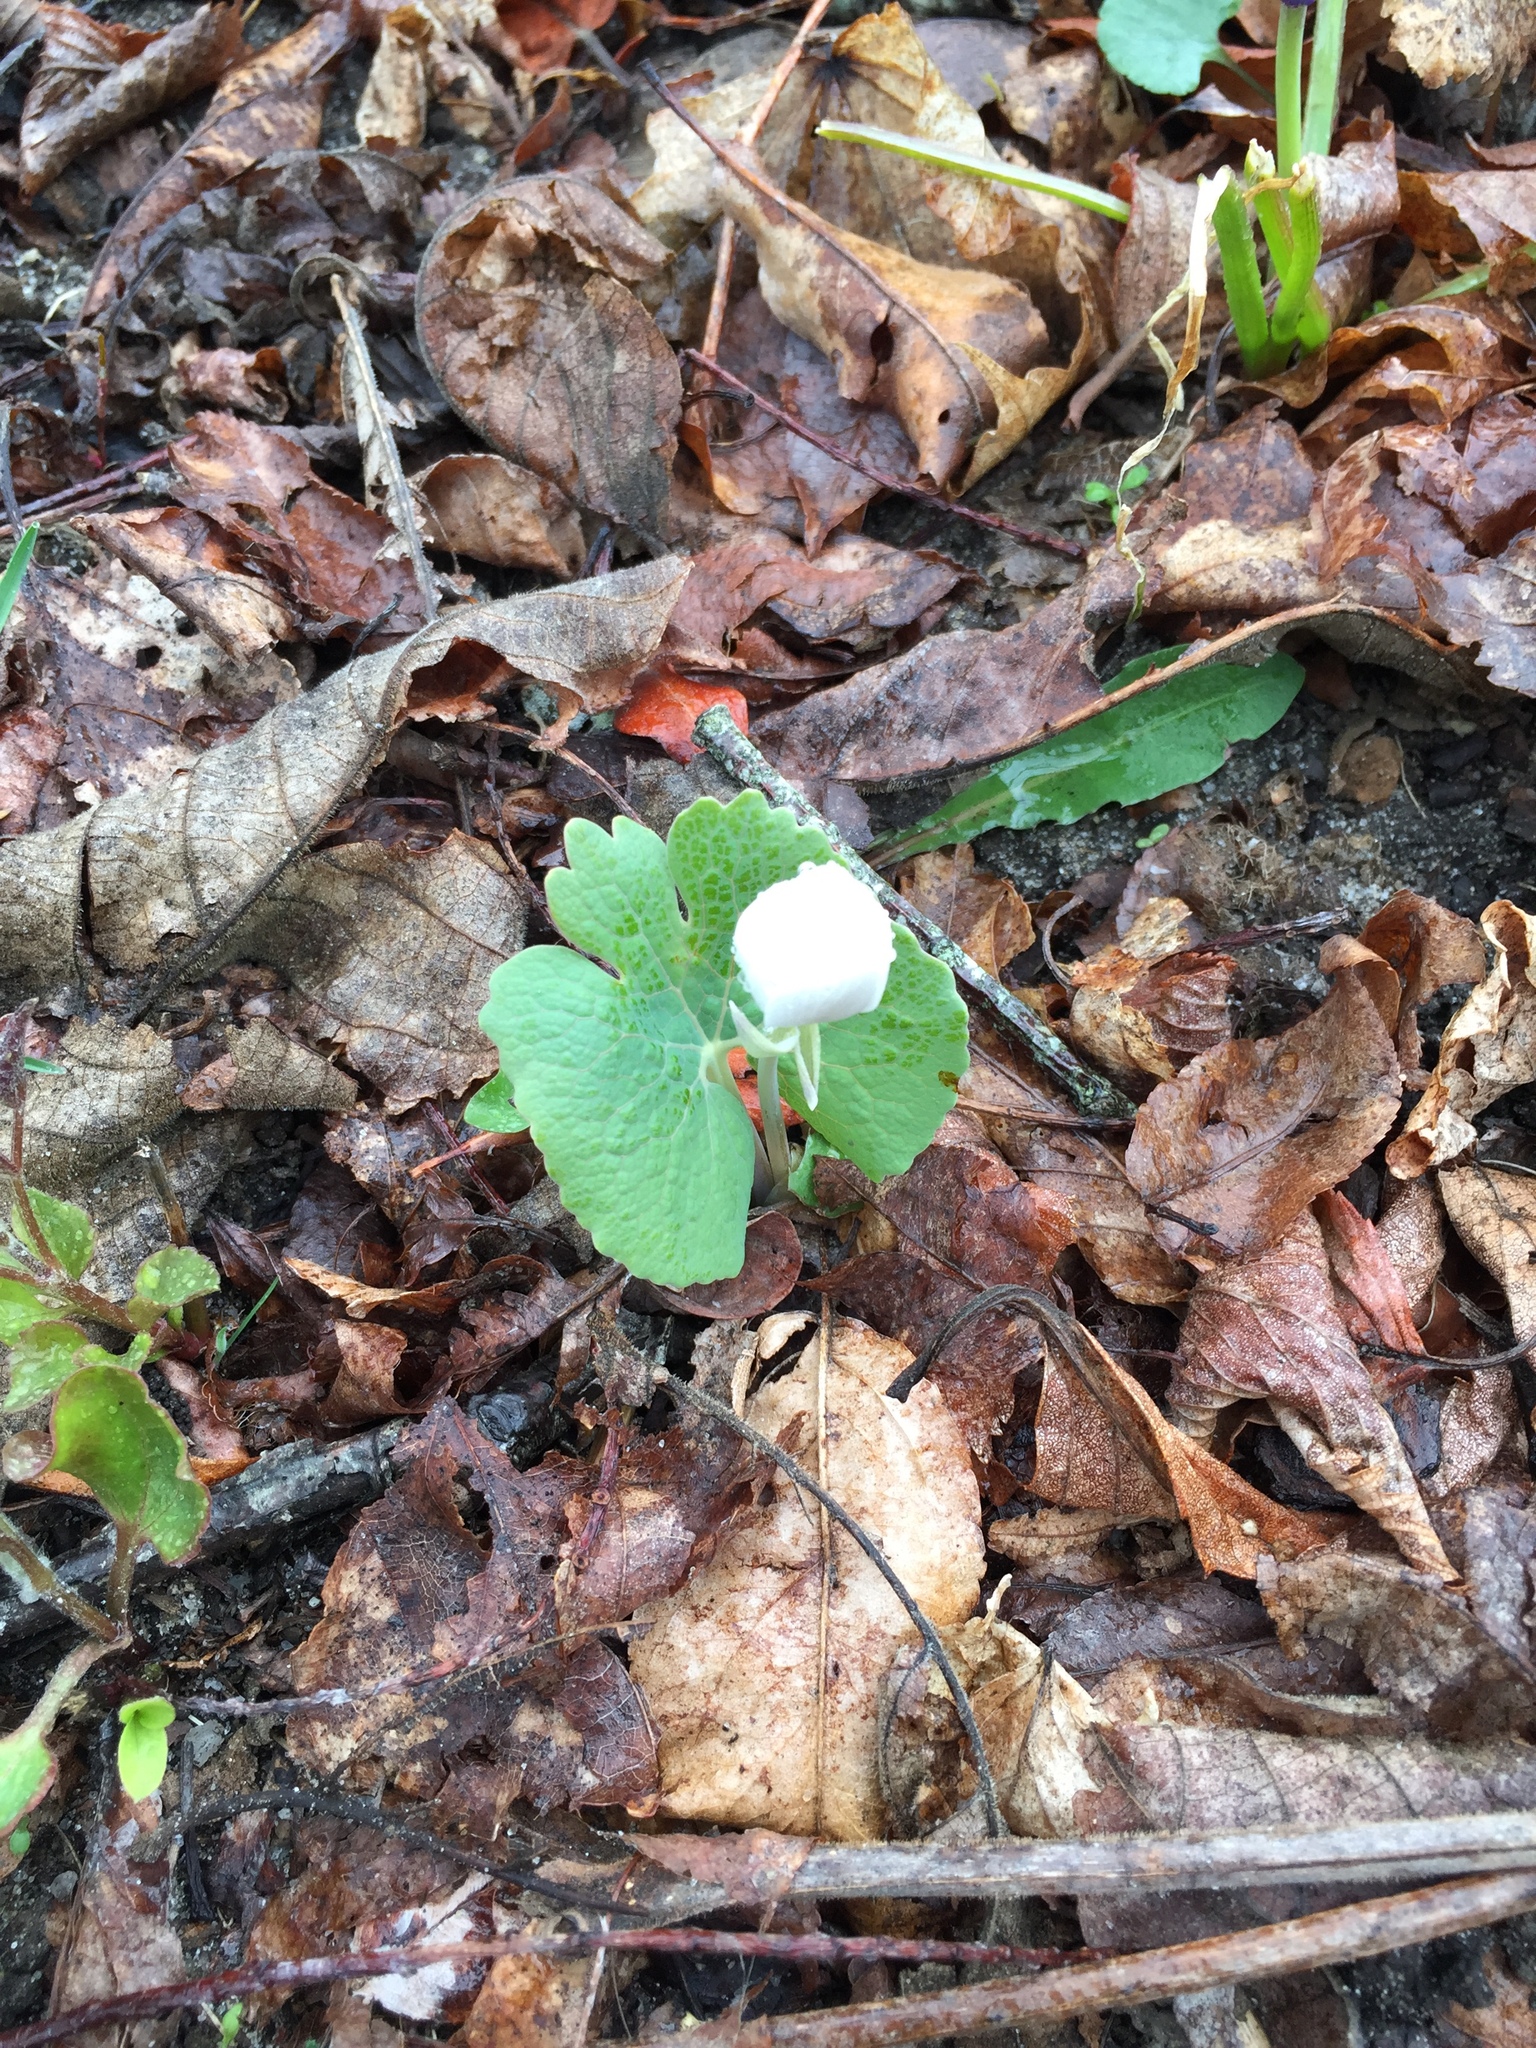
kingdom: Plantae
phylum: Tracheophyta
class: Magnoliopsida
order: Ranunculales
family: Papaveraceae
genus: Sanguinaria
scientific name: Sanguinaria canadensis
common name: Bloodroot
